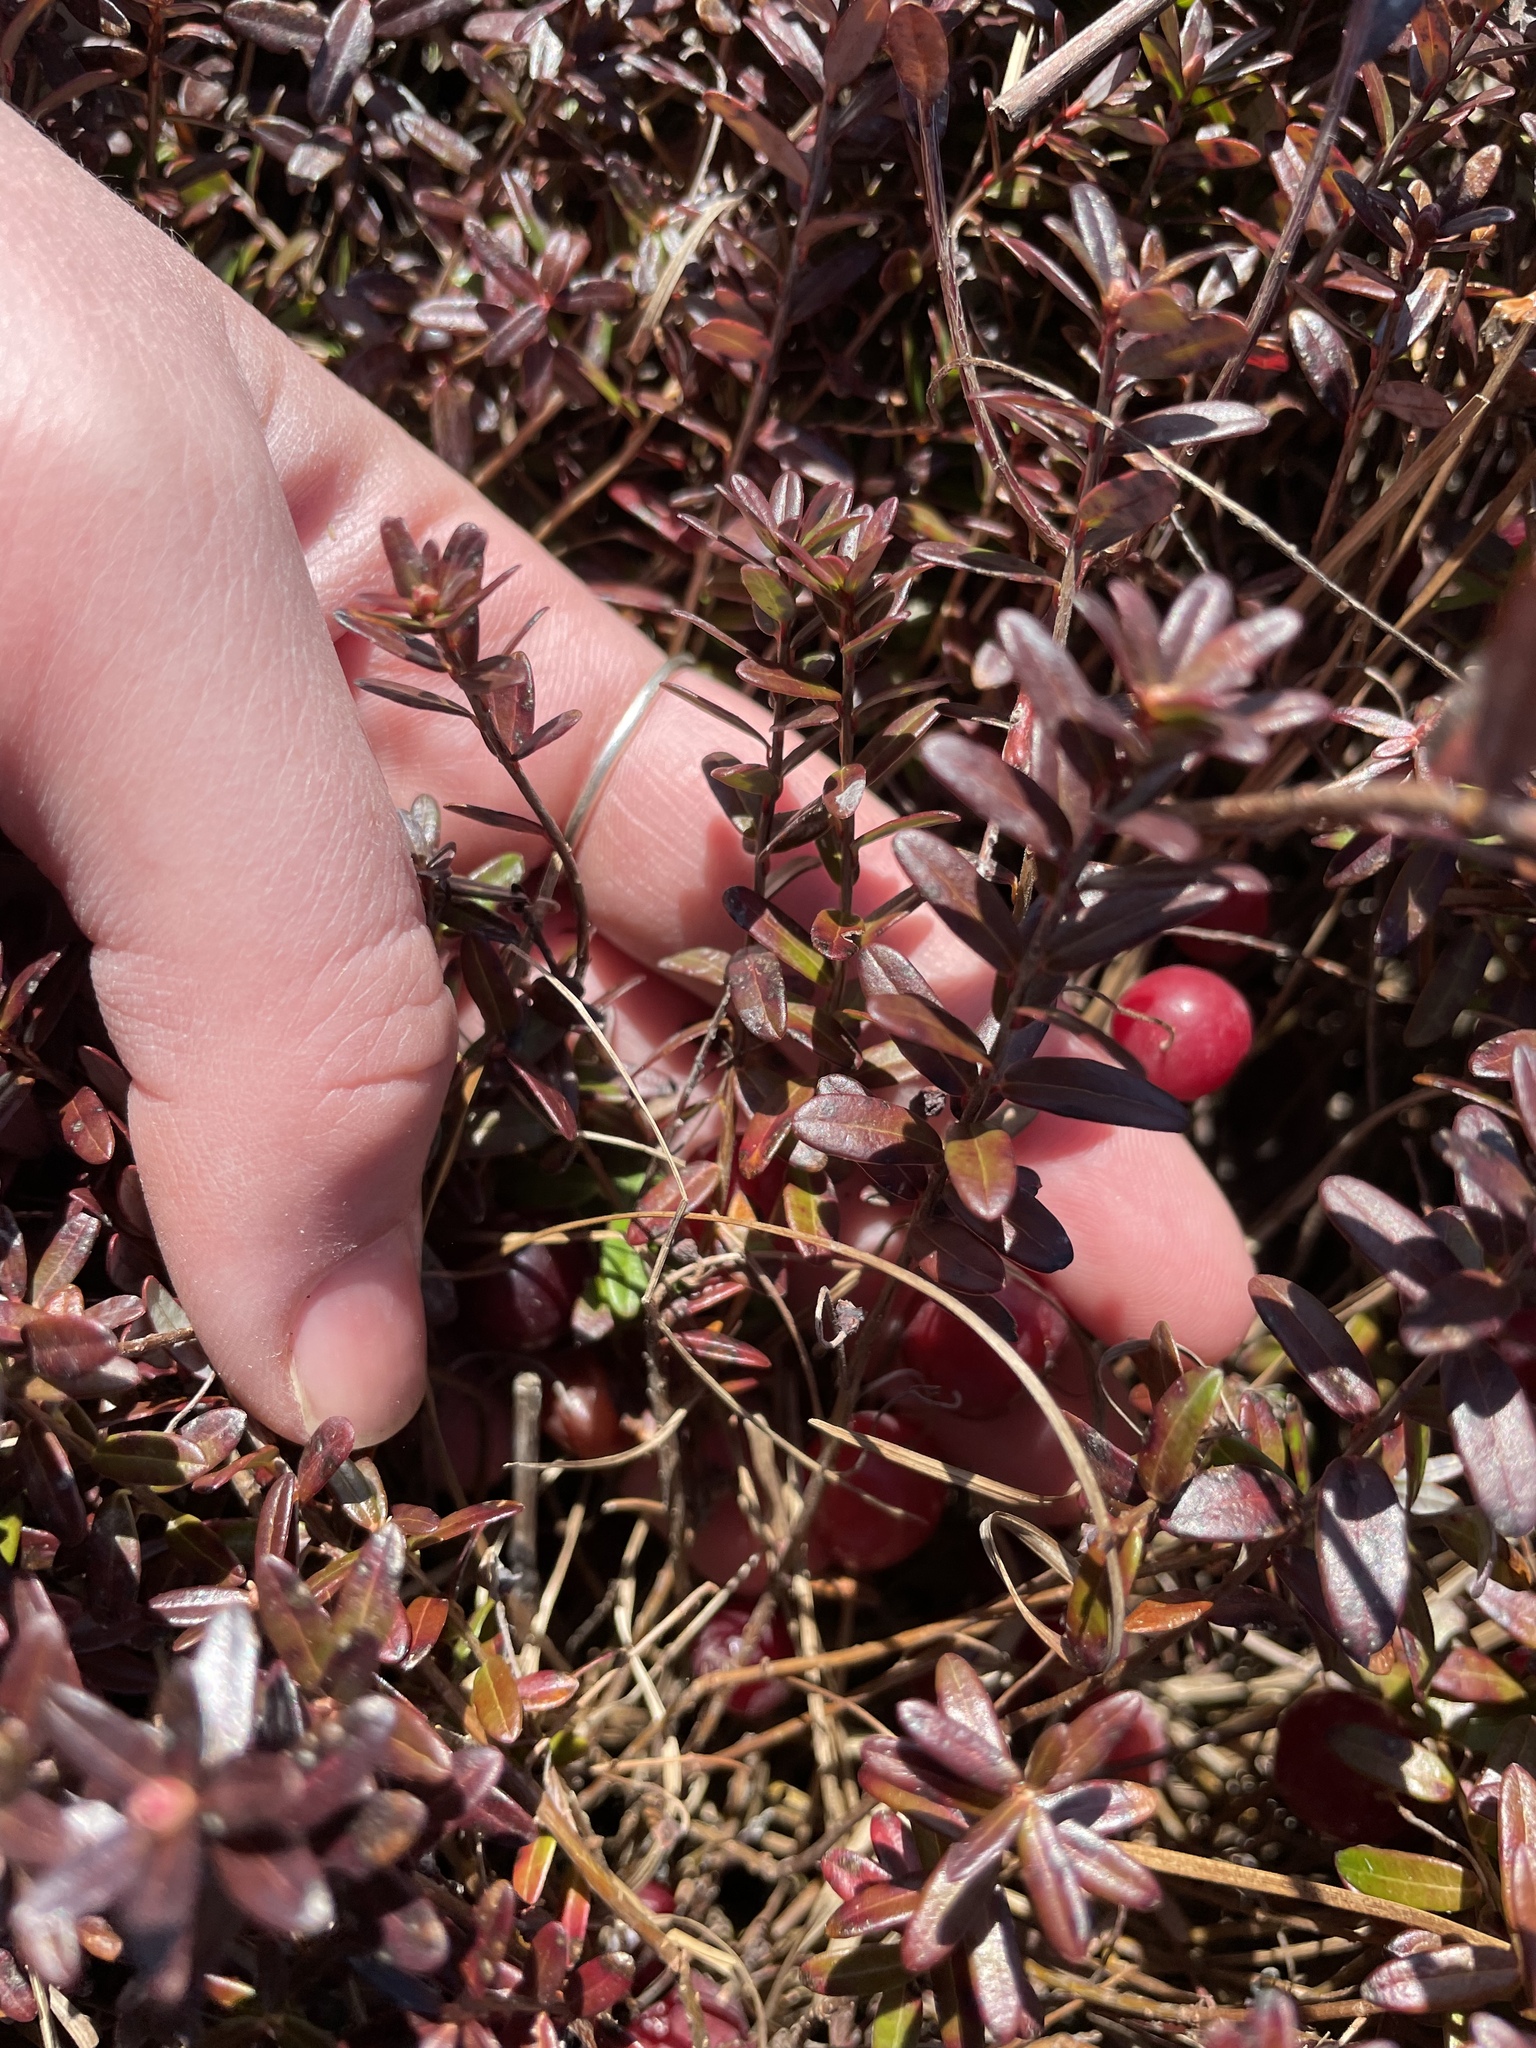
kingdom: Plantae
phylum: Tracheophyta
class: Magnoliopsida
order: Ericales
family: Ericaceae
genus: Vaccinium
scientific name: Vaccinium macrocarpon
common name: American cranberry
